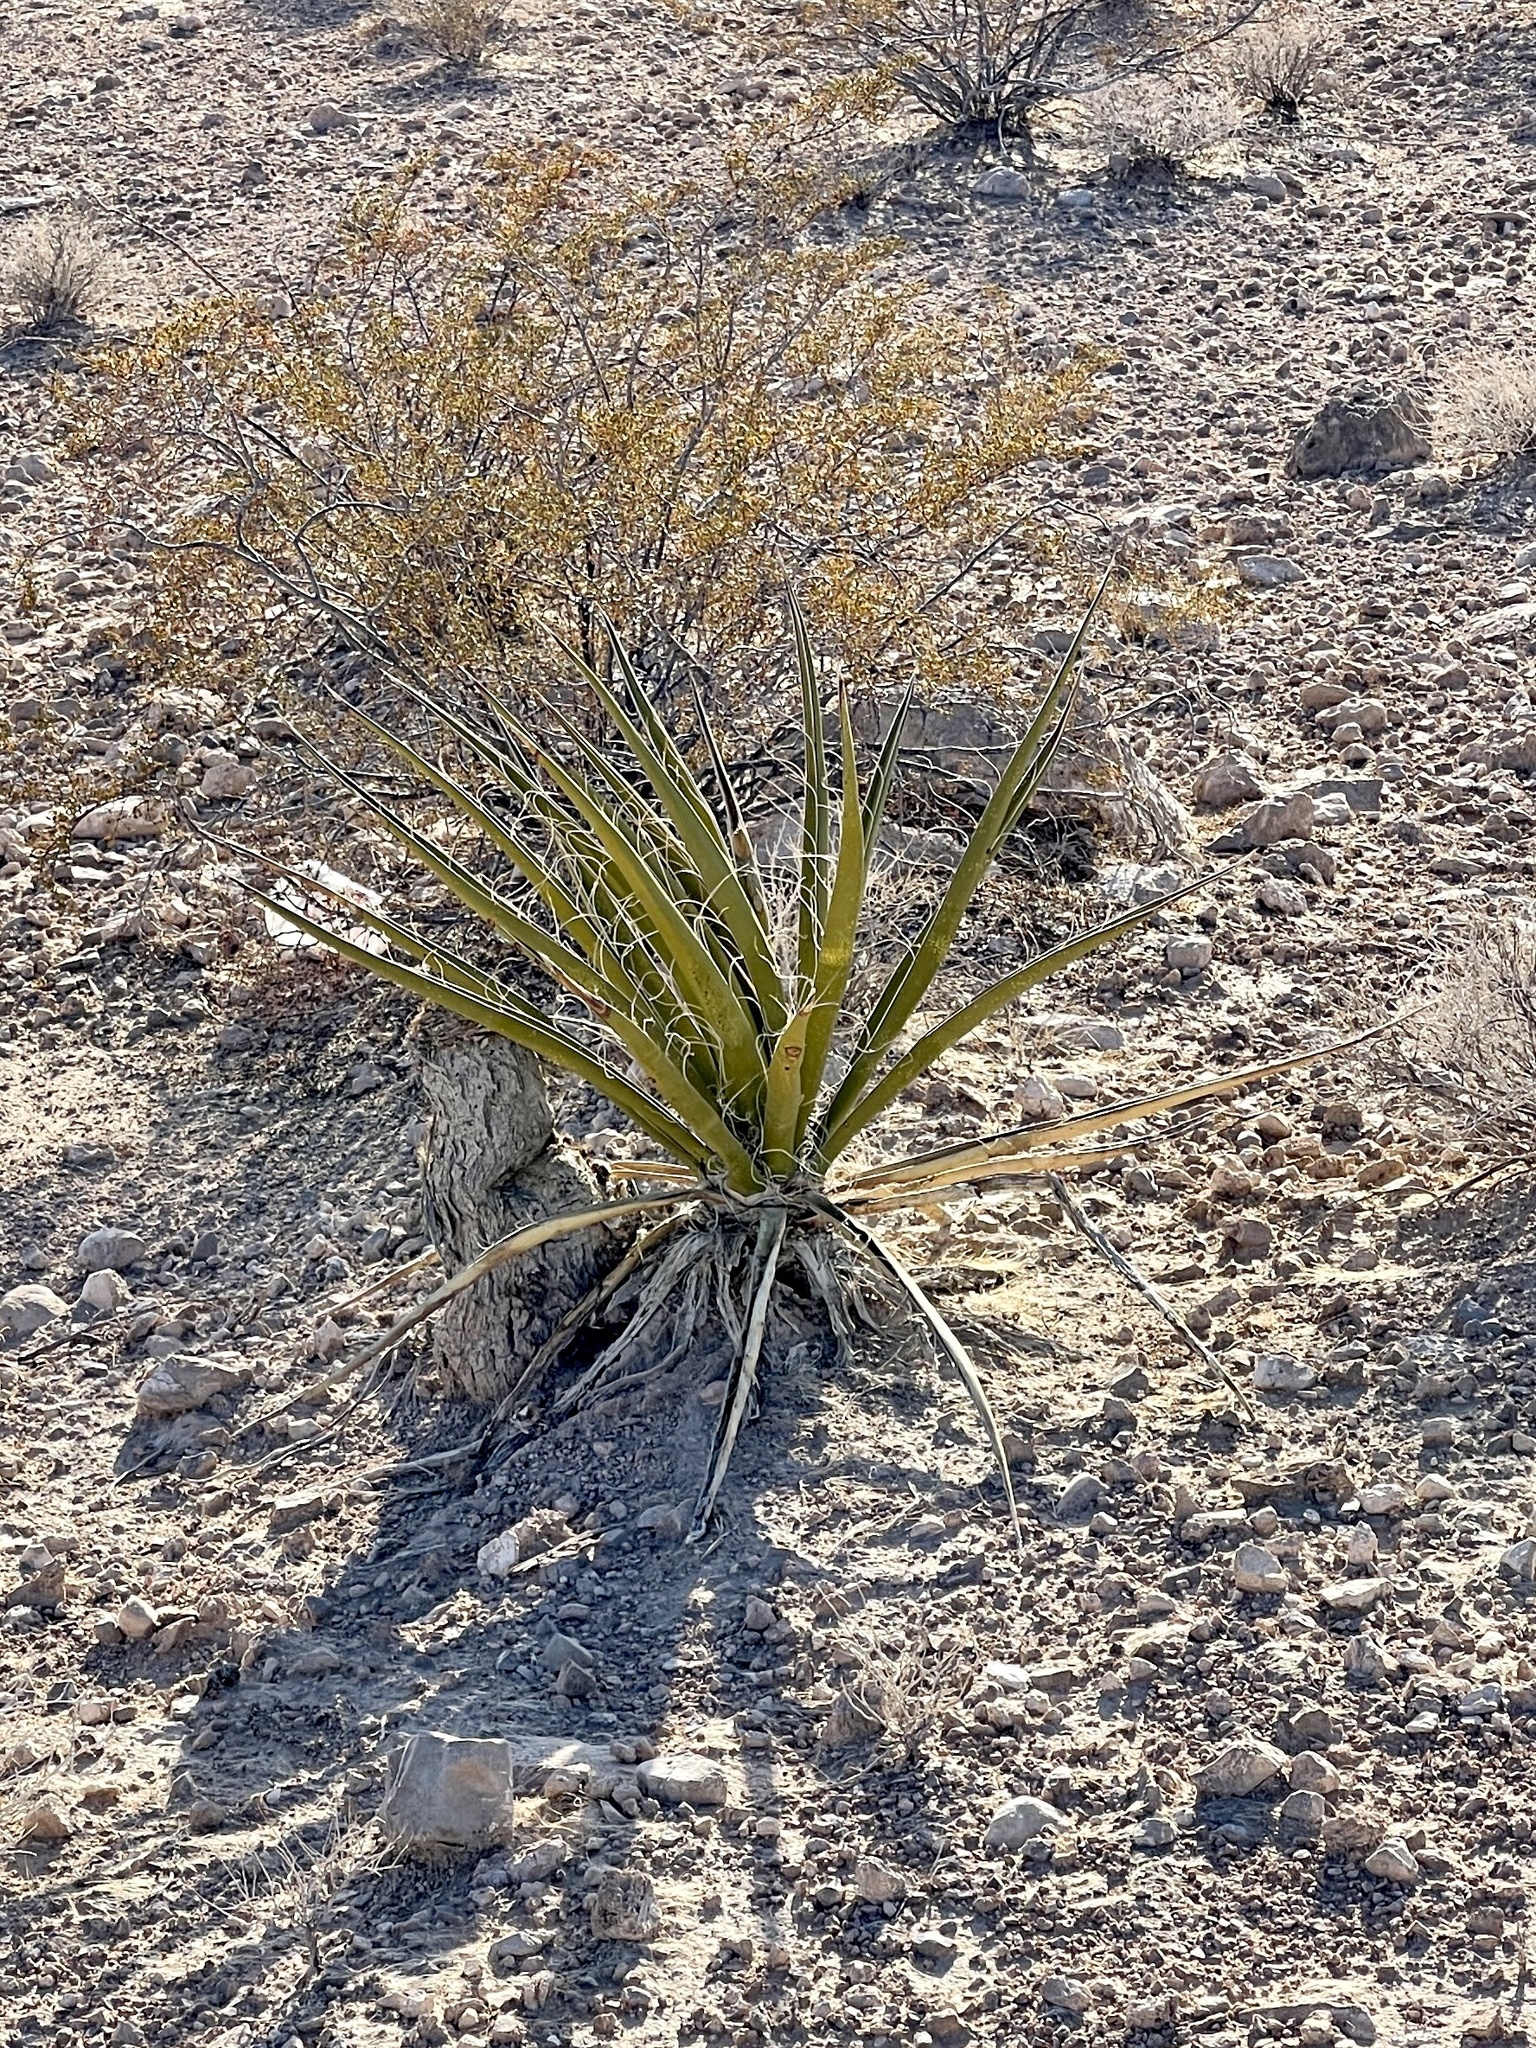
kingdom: Plantae
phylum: Tracheophyta
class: Liliopsida
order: Asparagales
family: Asparagaceae
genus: Yucca
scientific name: Yucca schidigera
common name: Mojave yucca
